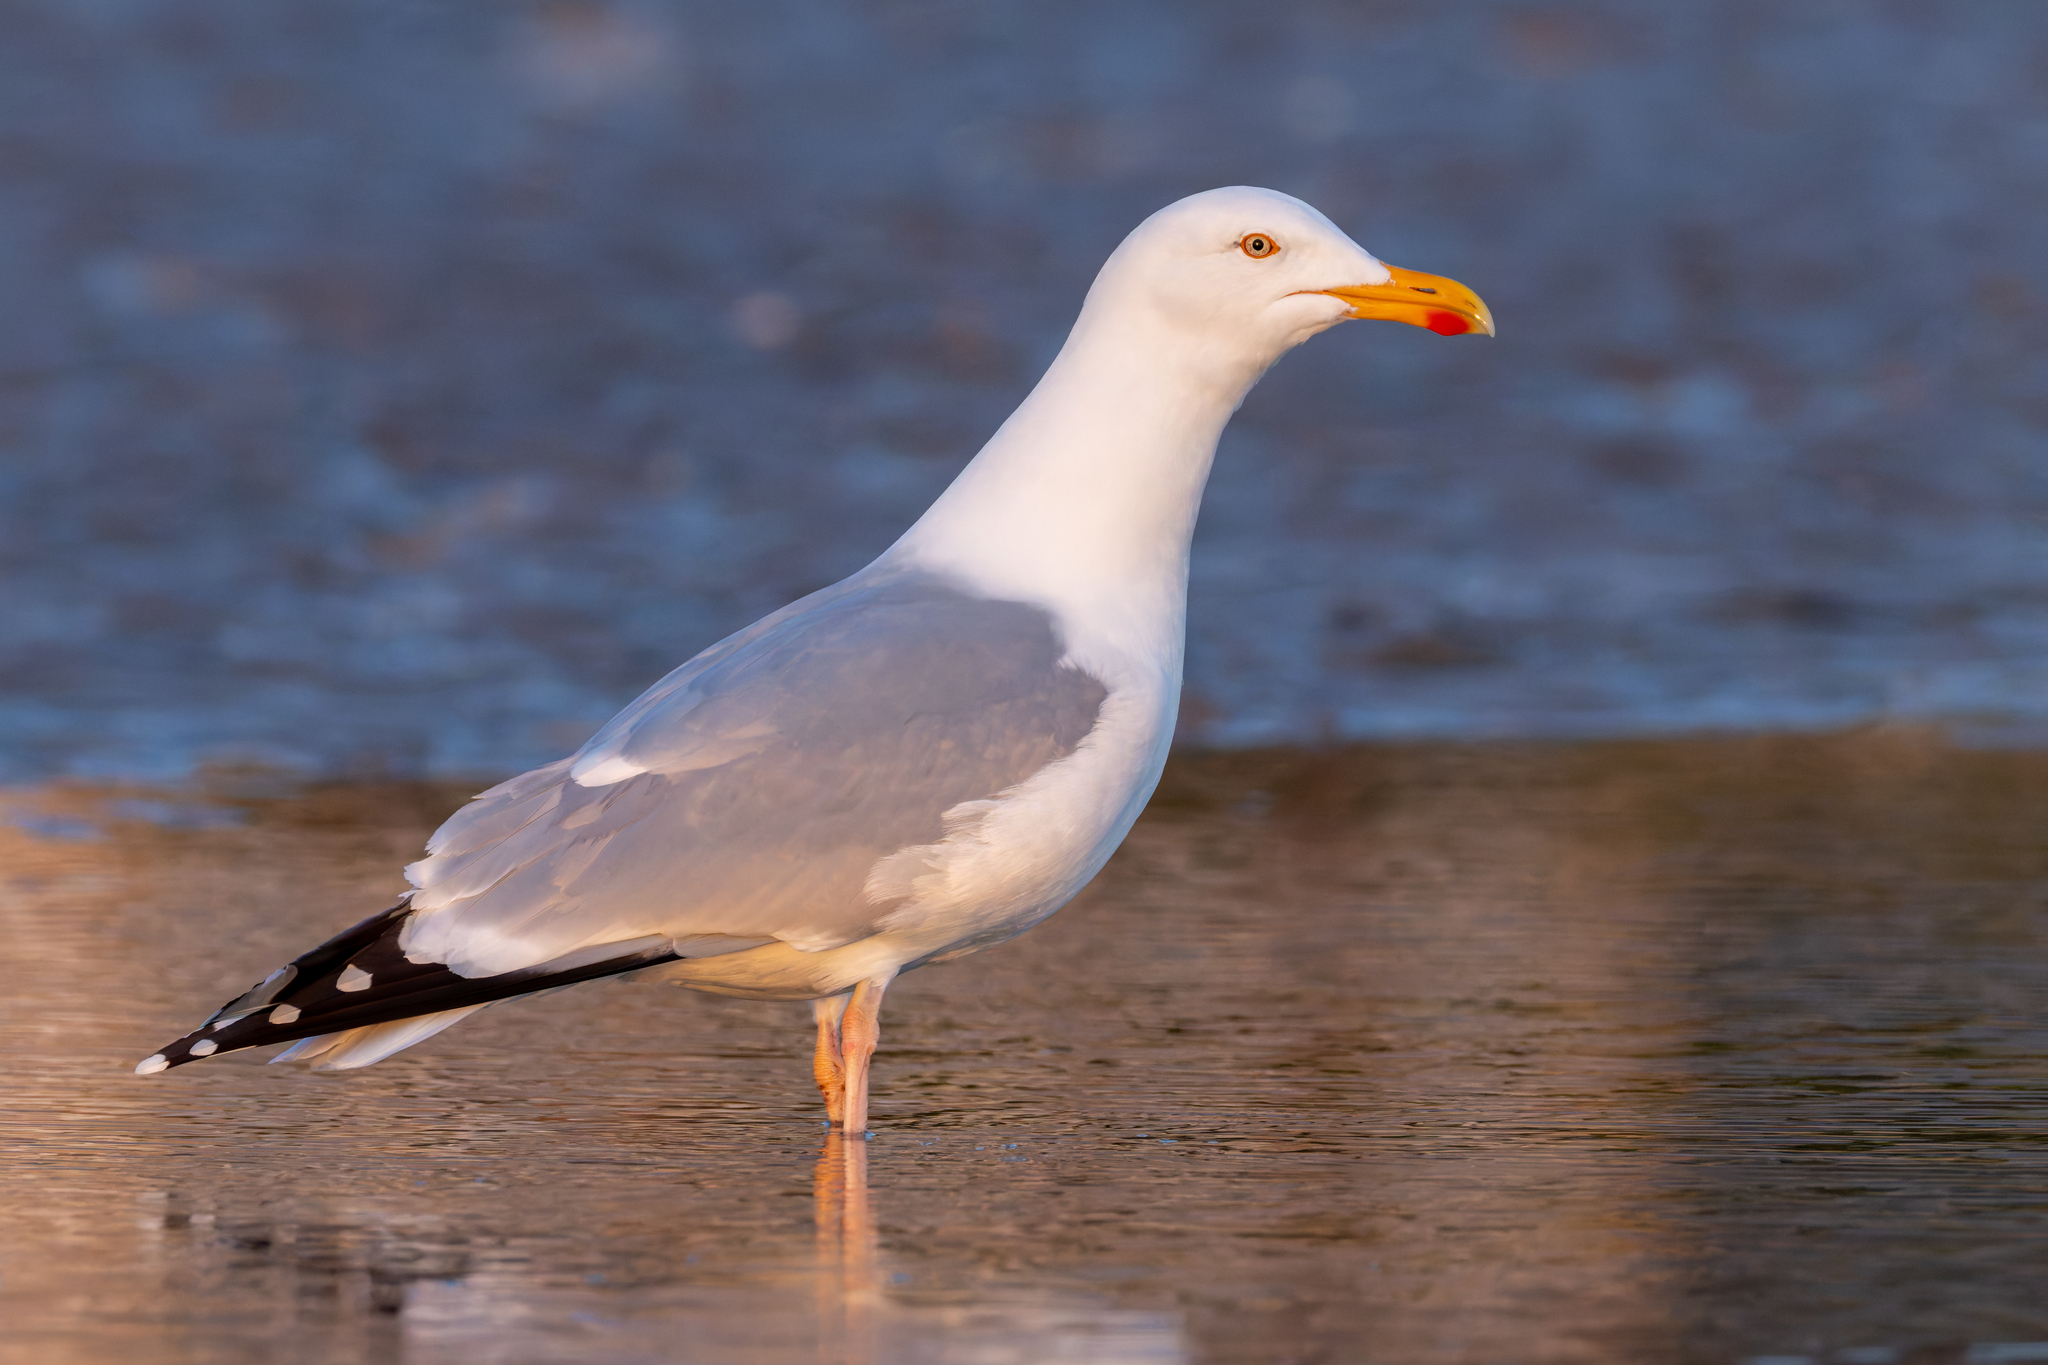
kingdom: Animalia
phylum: Chordata
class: Aves
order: Charadriiformes
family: Laridae
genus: Larus
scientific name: Larus argentatus
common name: Herring gull
